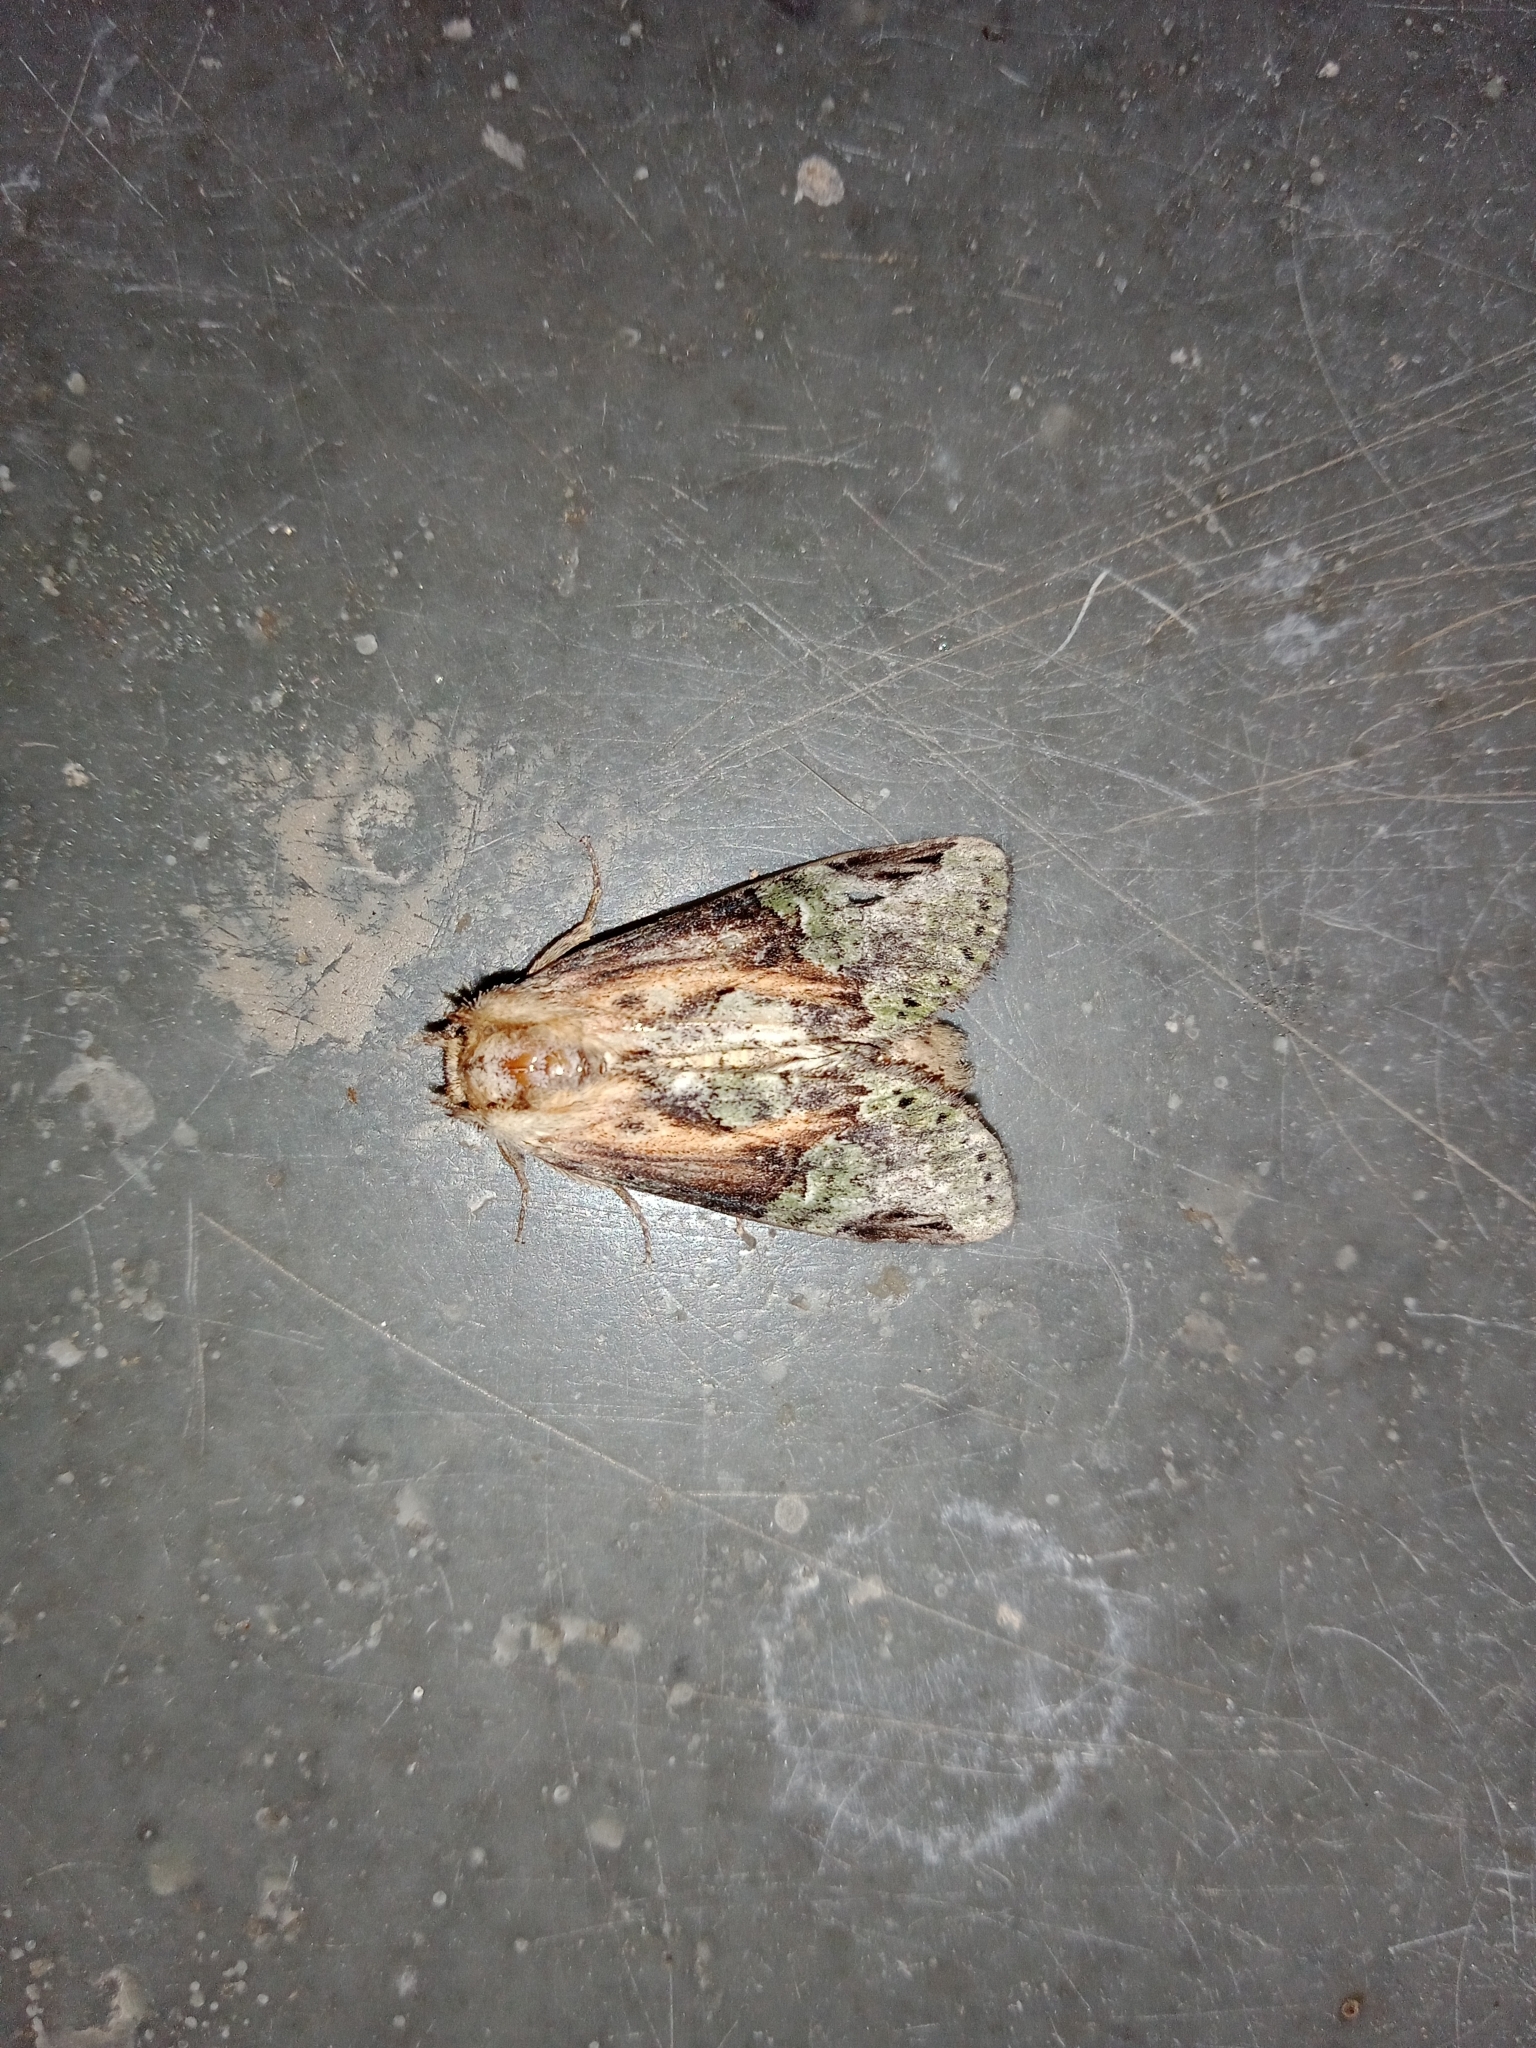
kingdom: Animalia
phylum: Arthropoda
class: Insecta
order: Lepidoptera
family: Notodontidae
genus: Chadisra
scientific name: Chadisra bipars
